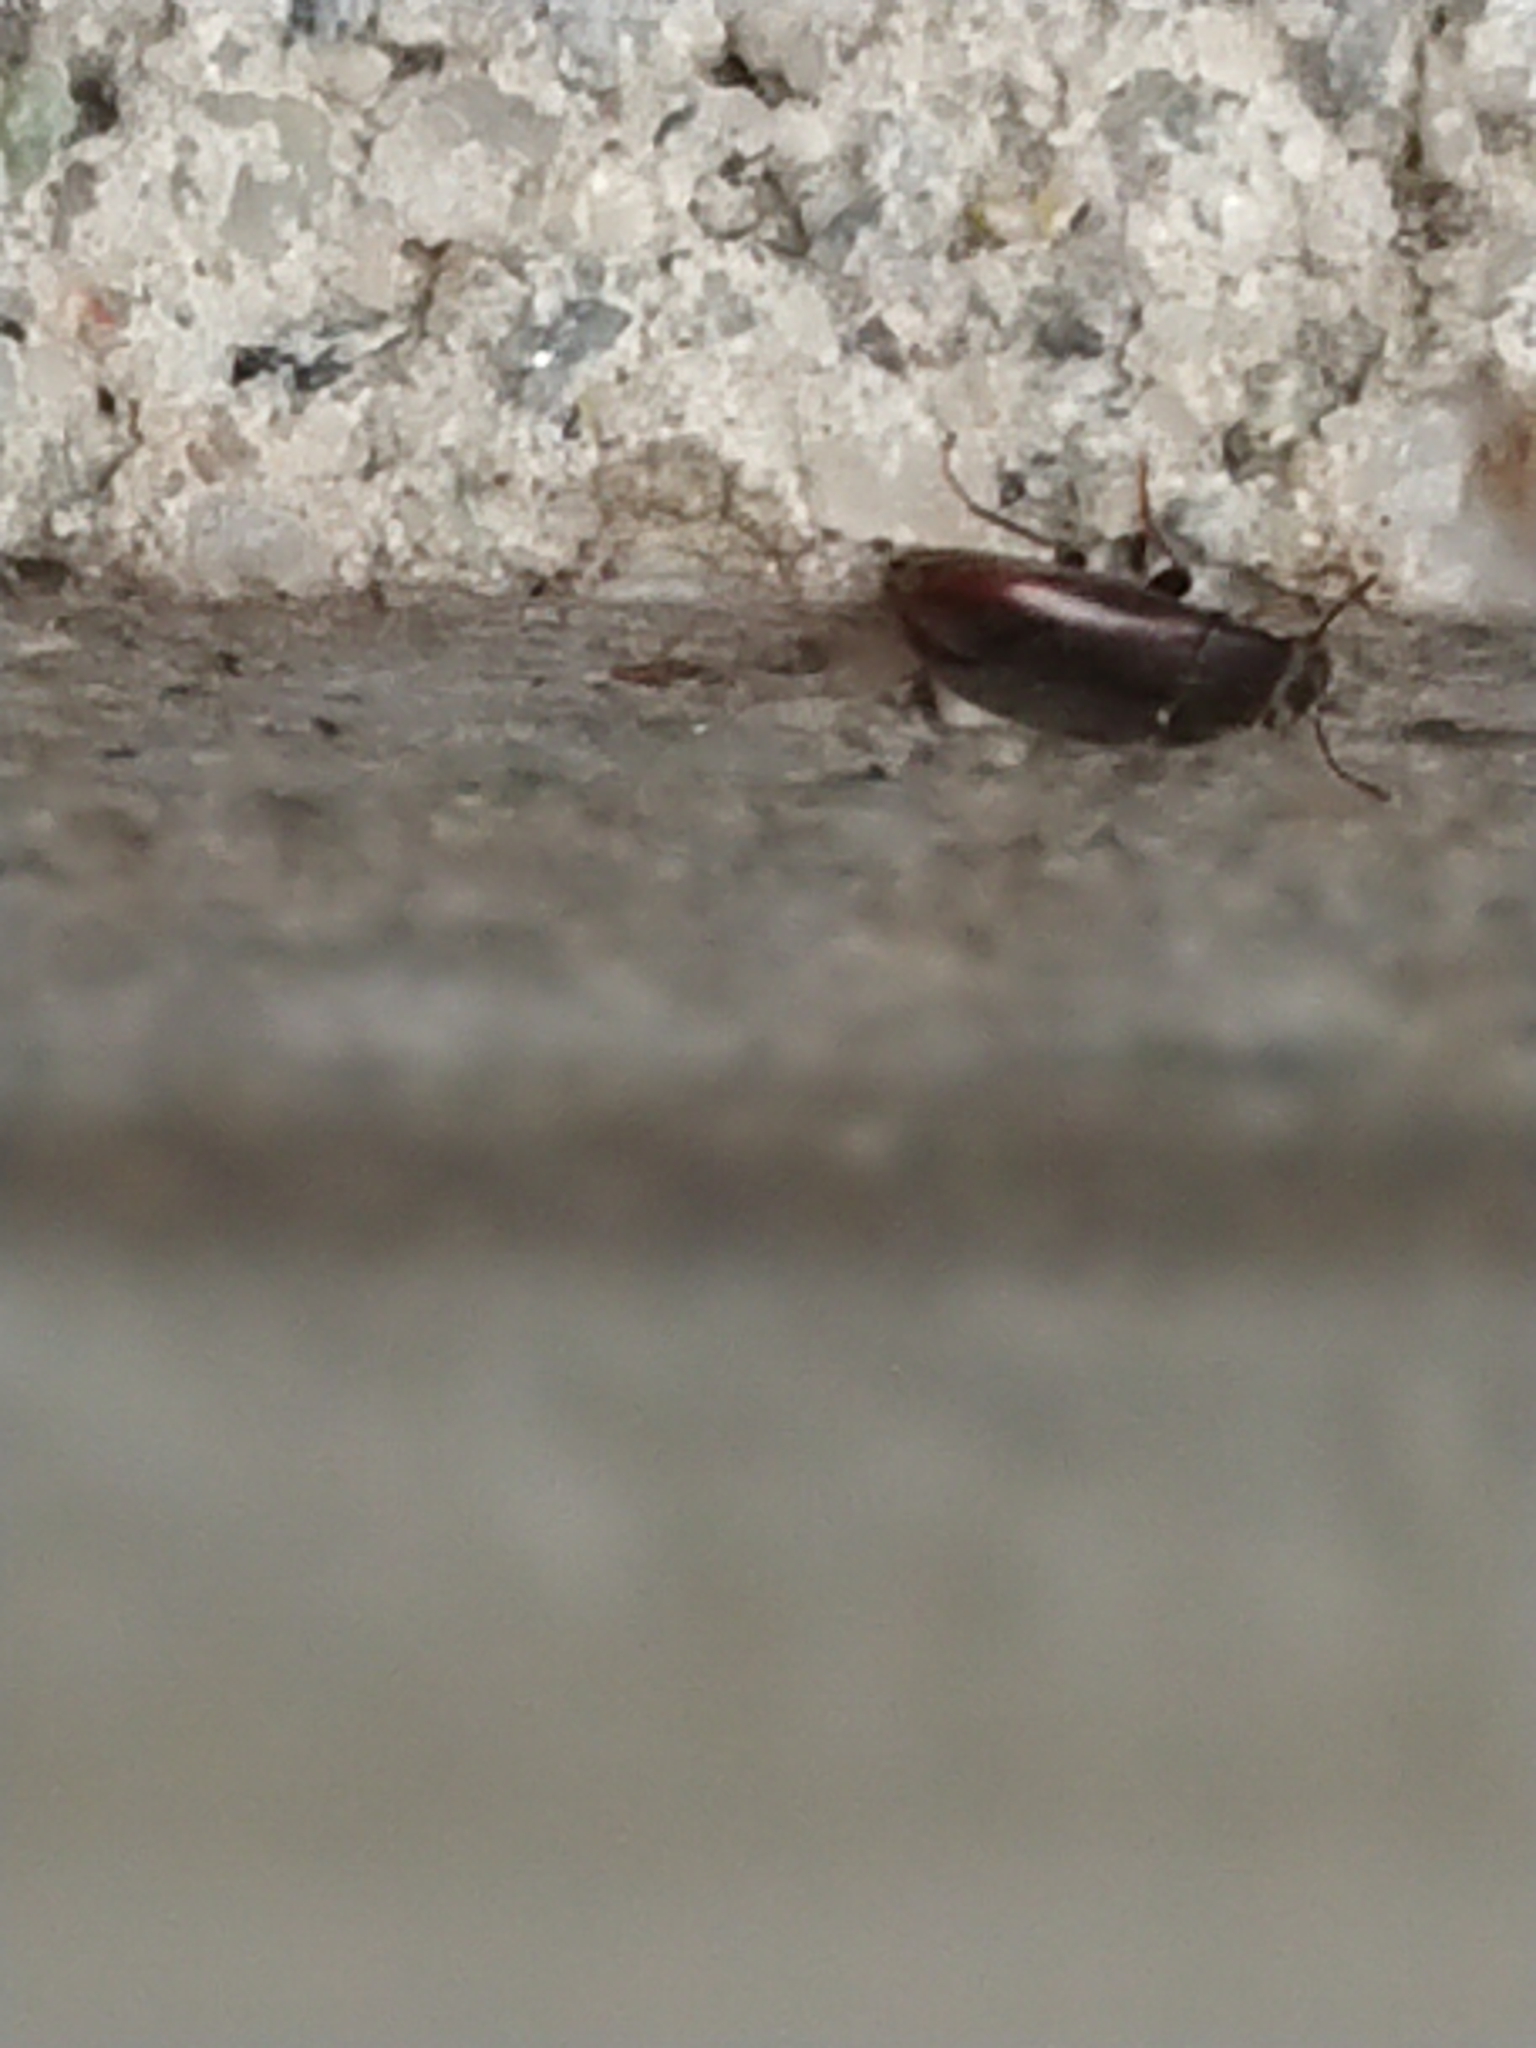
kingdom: Animalia
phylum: Arthropoda
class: Insecta
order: Coleoptera
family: Archeocrypticidae
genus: Enneboeus
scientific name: Enneboeus
